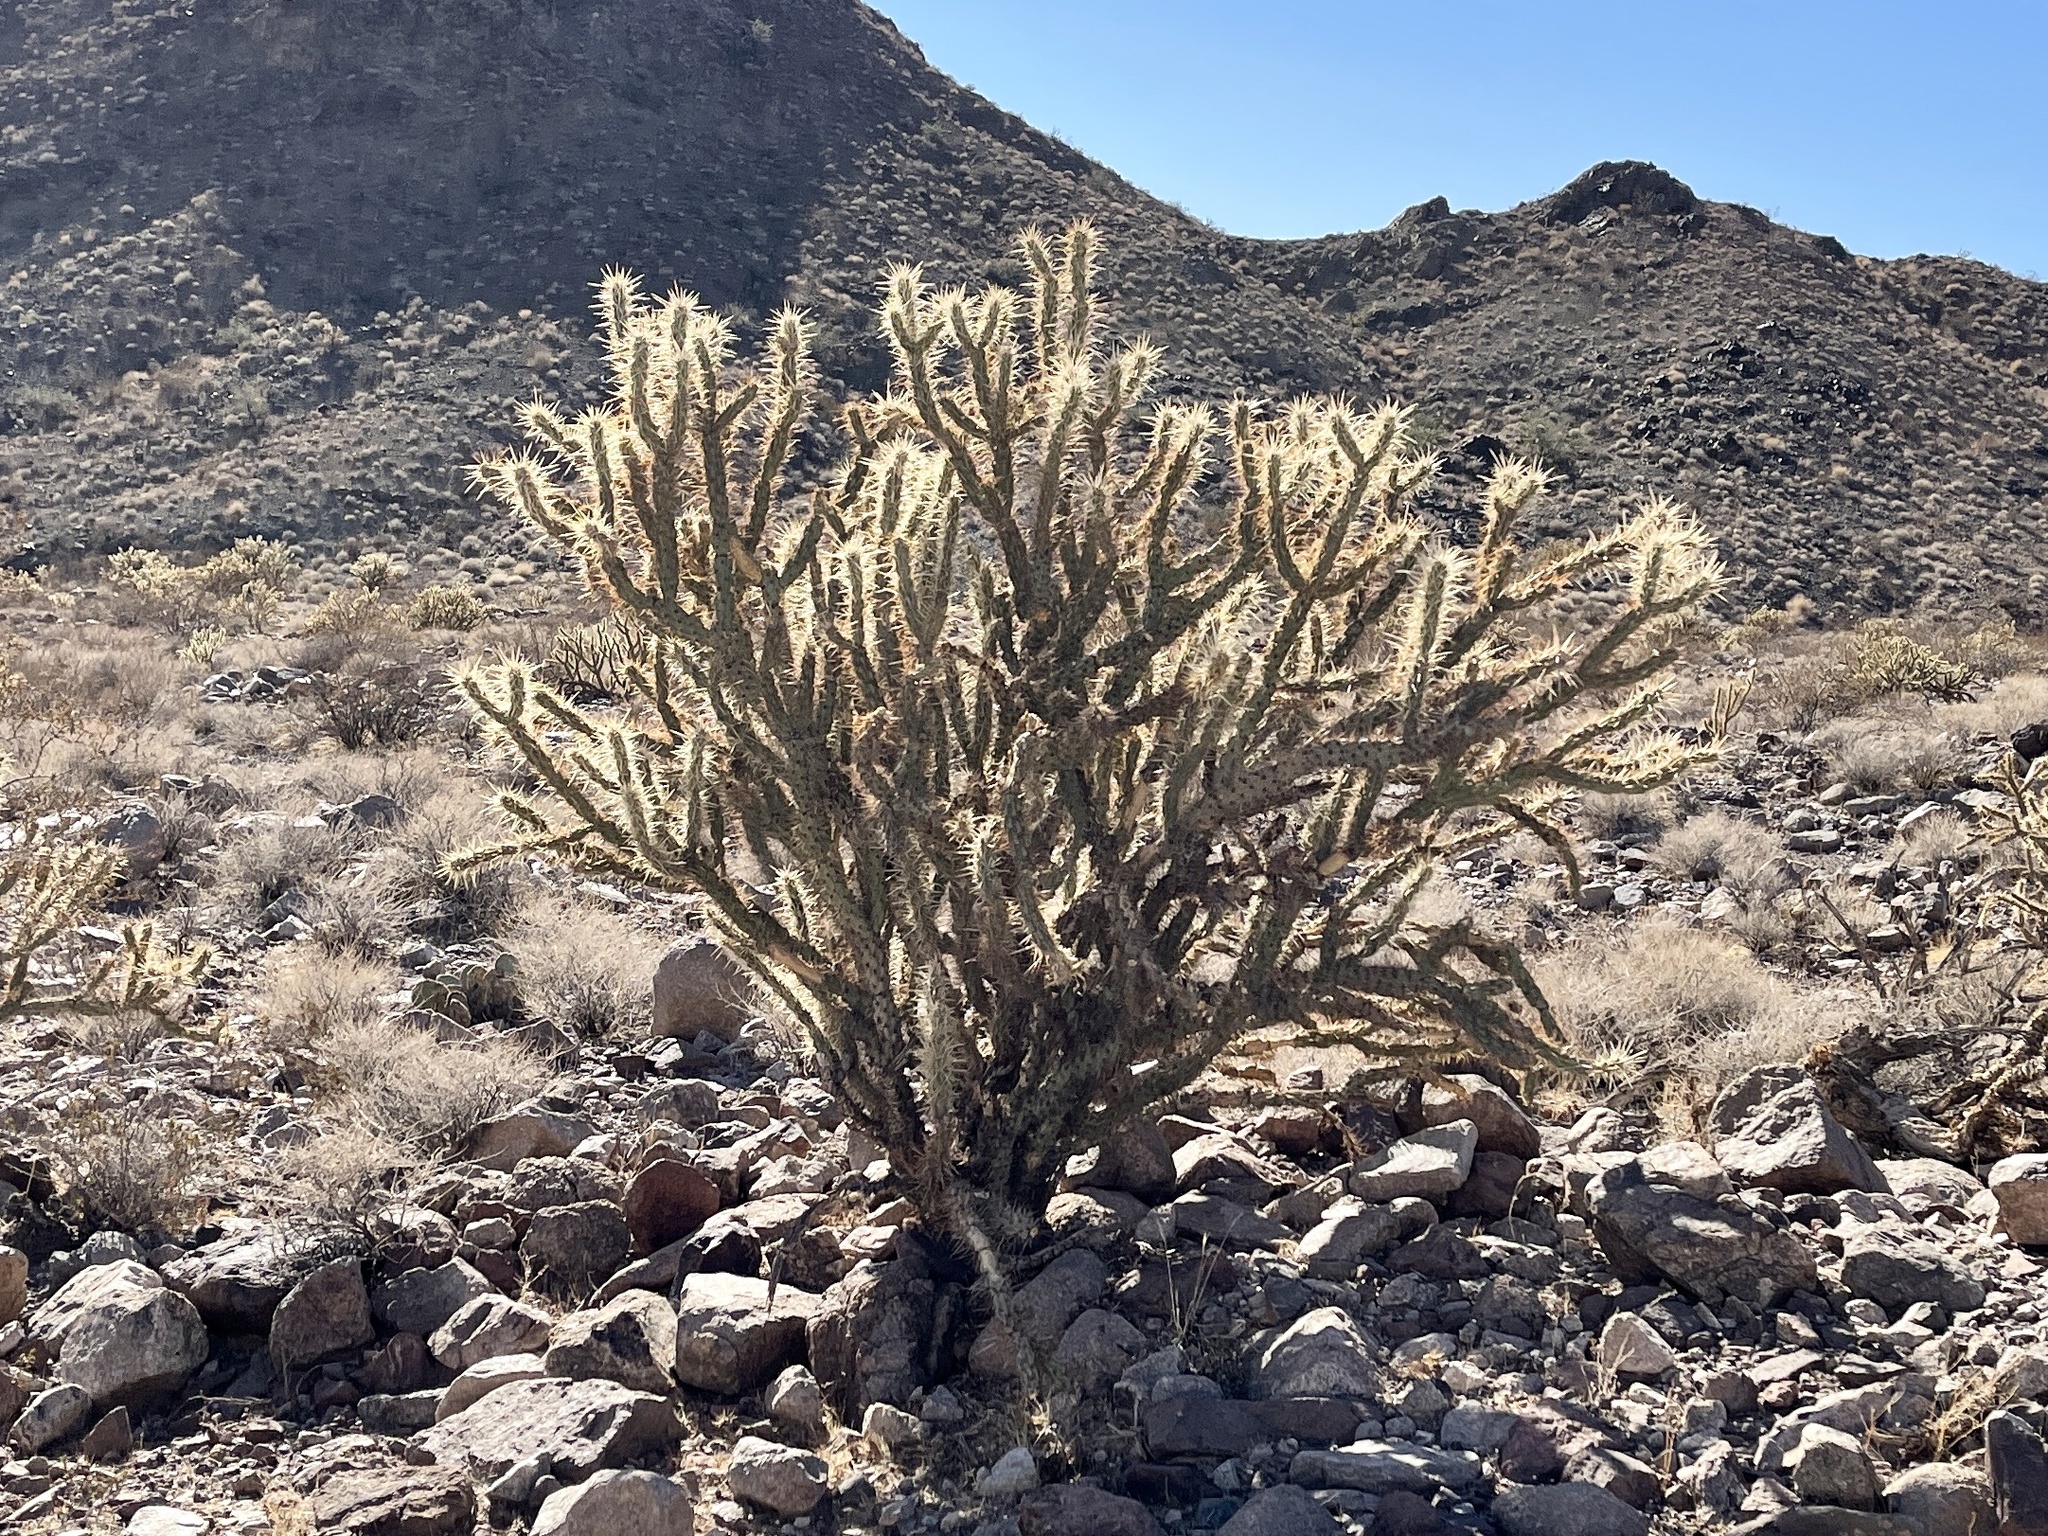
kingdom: Plantae
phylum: Tracheophyta
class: Magnoliopsida
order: Caryophyllales
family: Cactaceae
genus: Cylindropuntia
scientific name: Cylindropuntia acanthocarpa
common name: Buckhorn cholla
